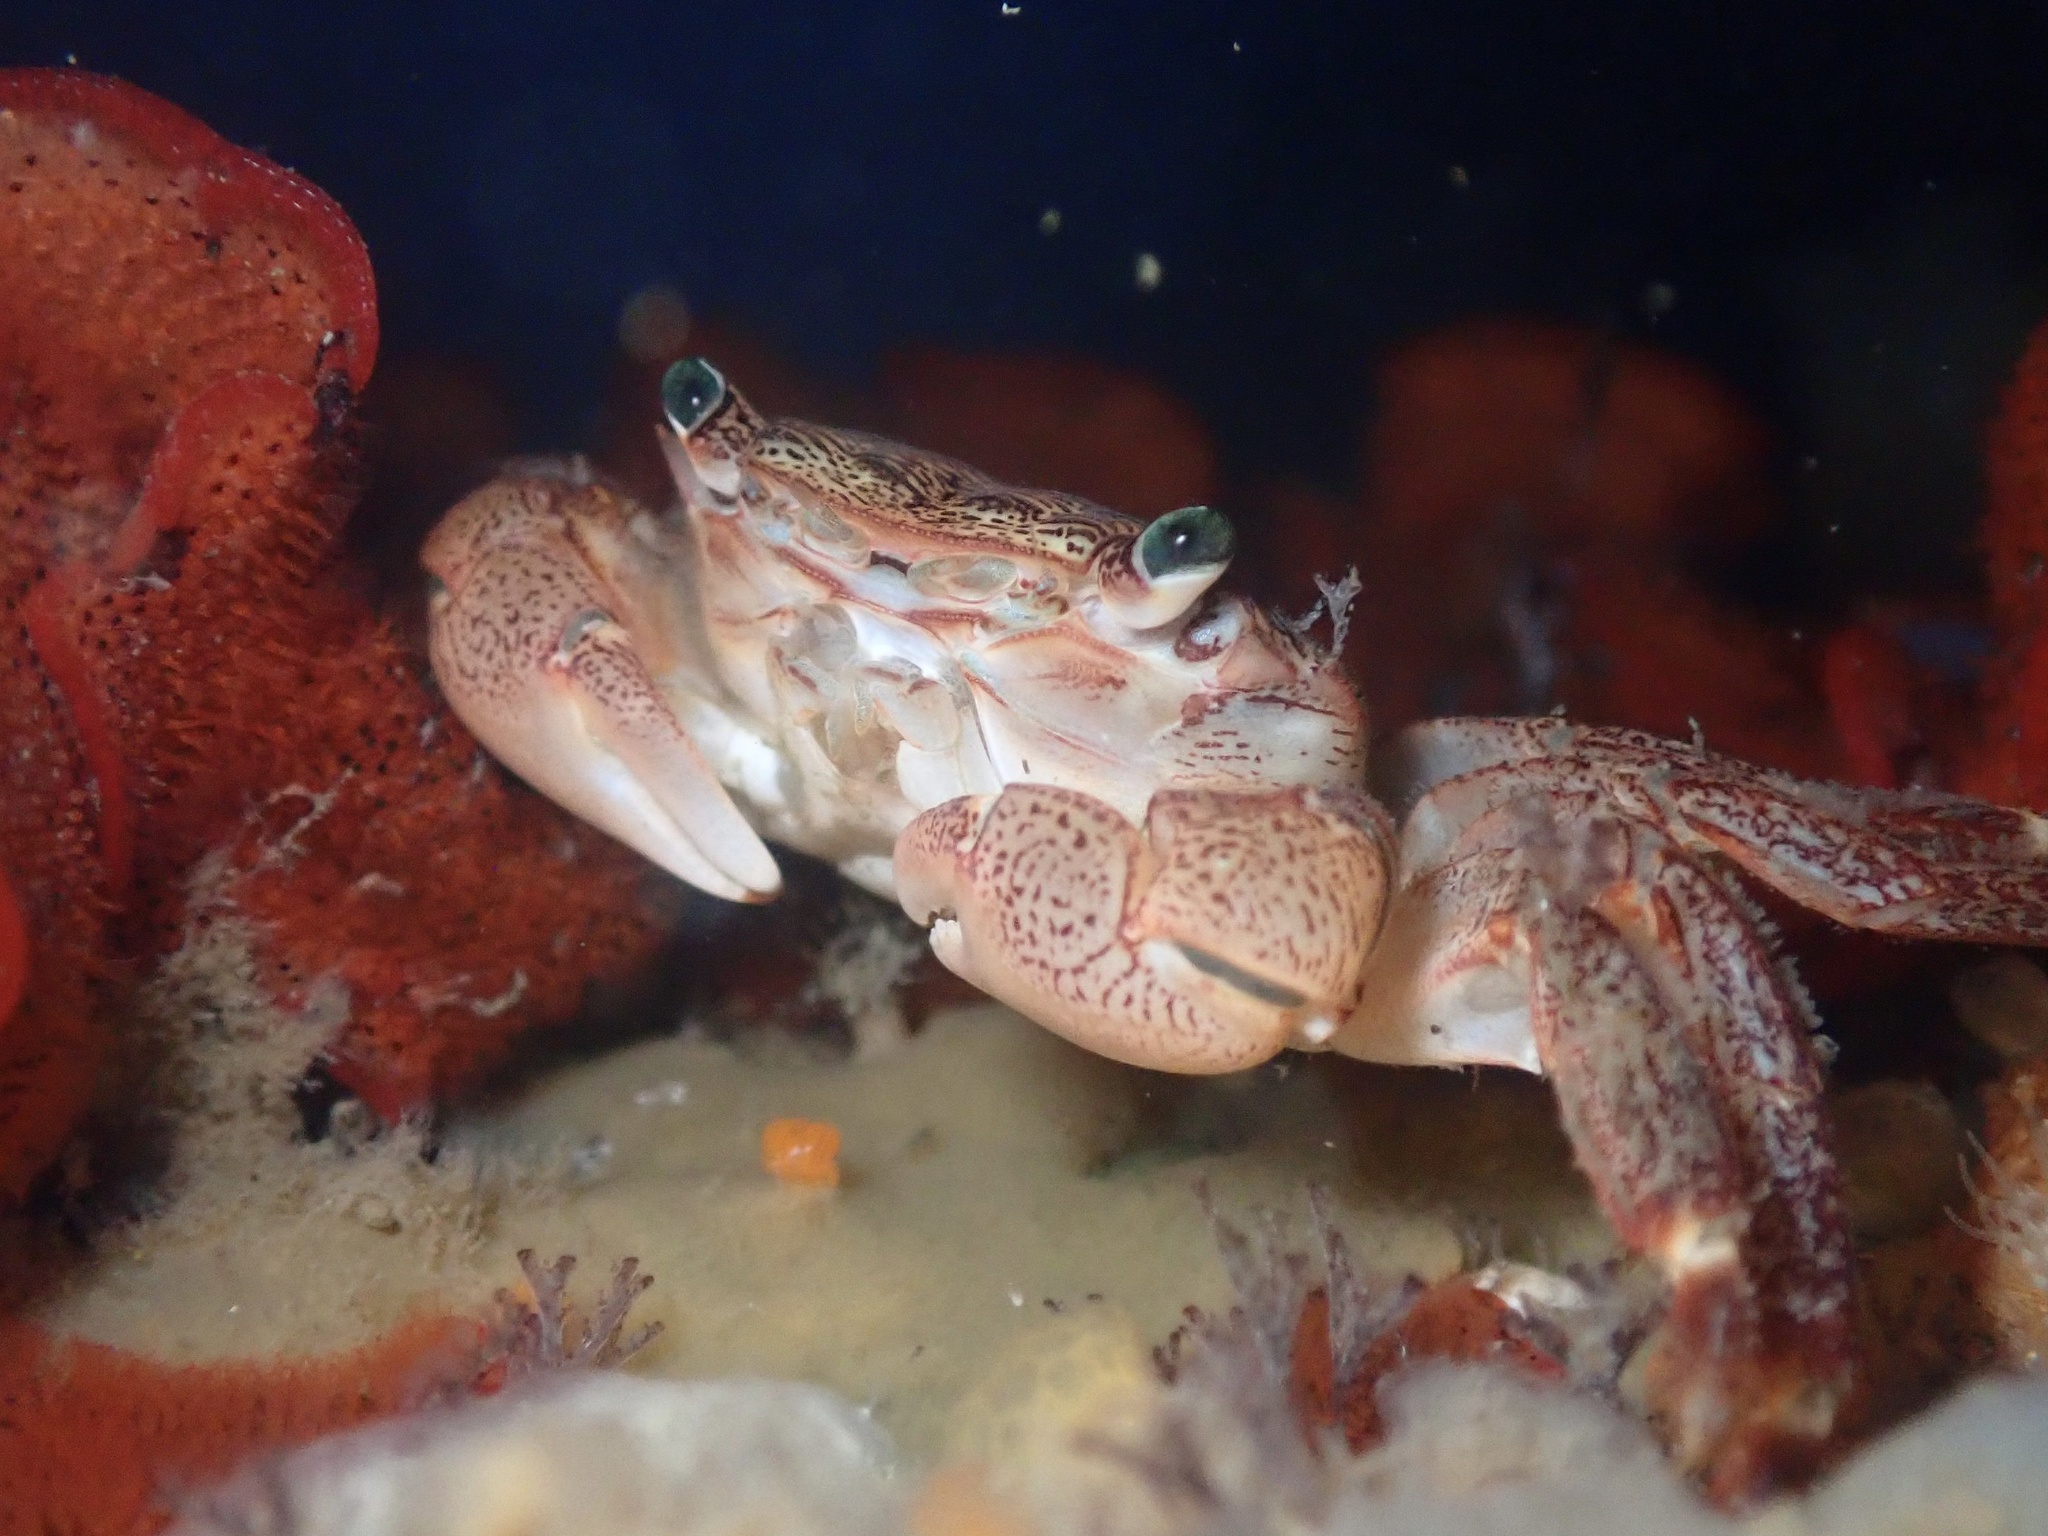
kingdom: Animalia
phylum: Arthropoda
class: Malacostraca
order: Decapoda
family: Grapsidae
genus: Pachygrapsus
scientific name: Pachygrapsus crassipes
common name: Striped shore crab
